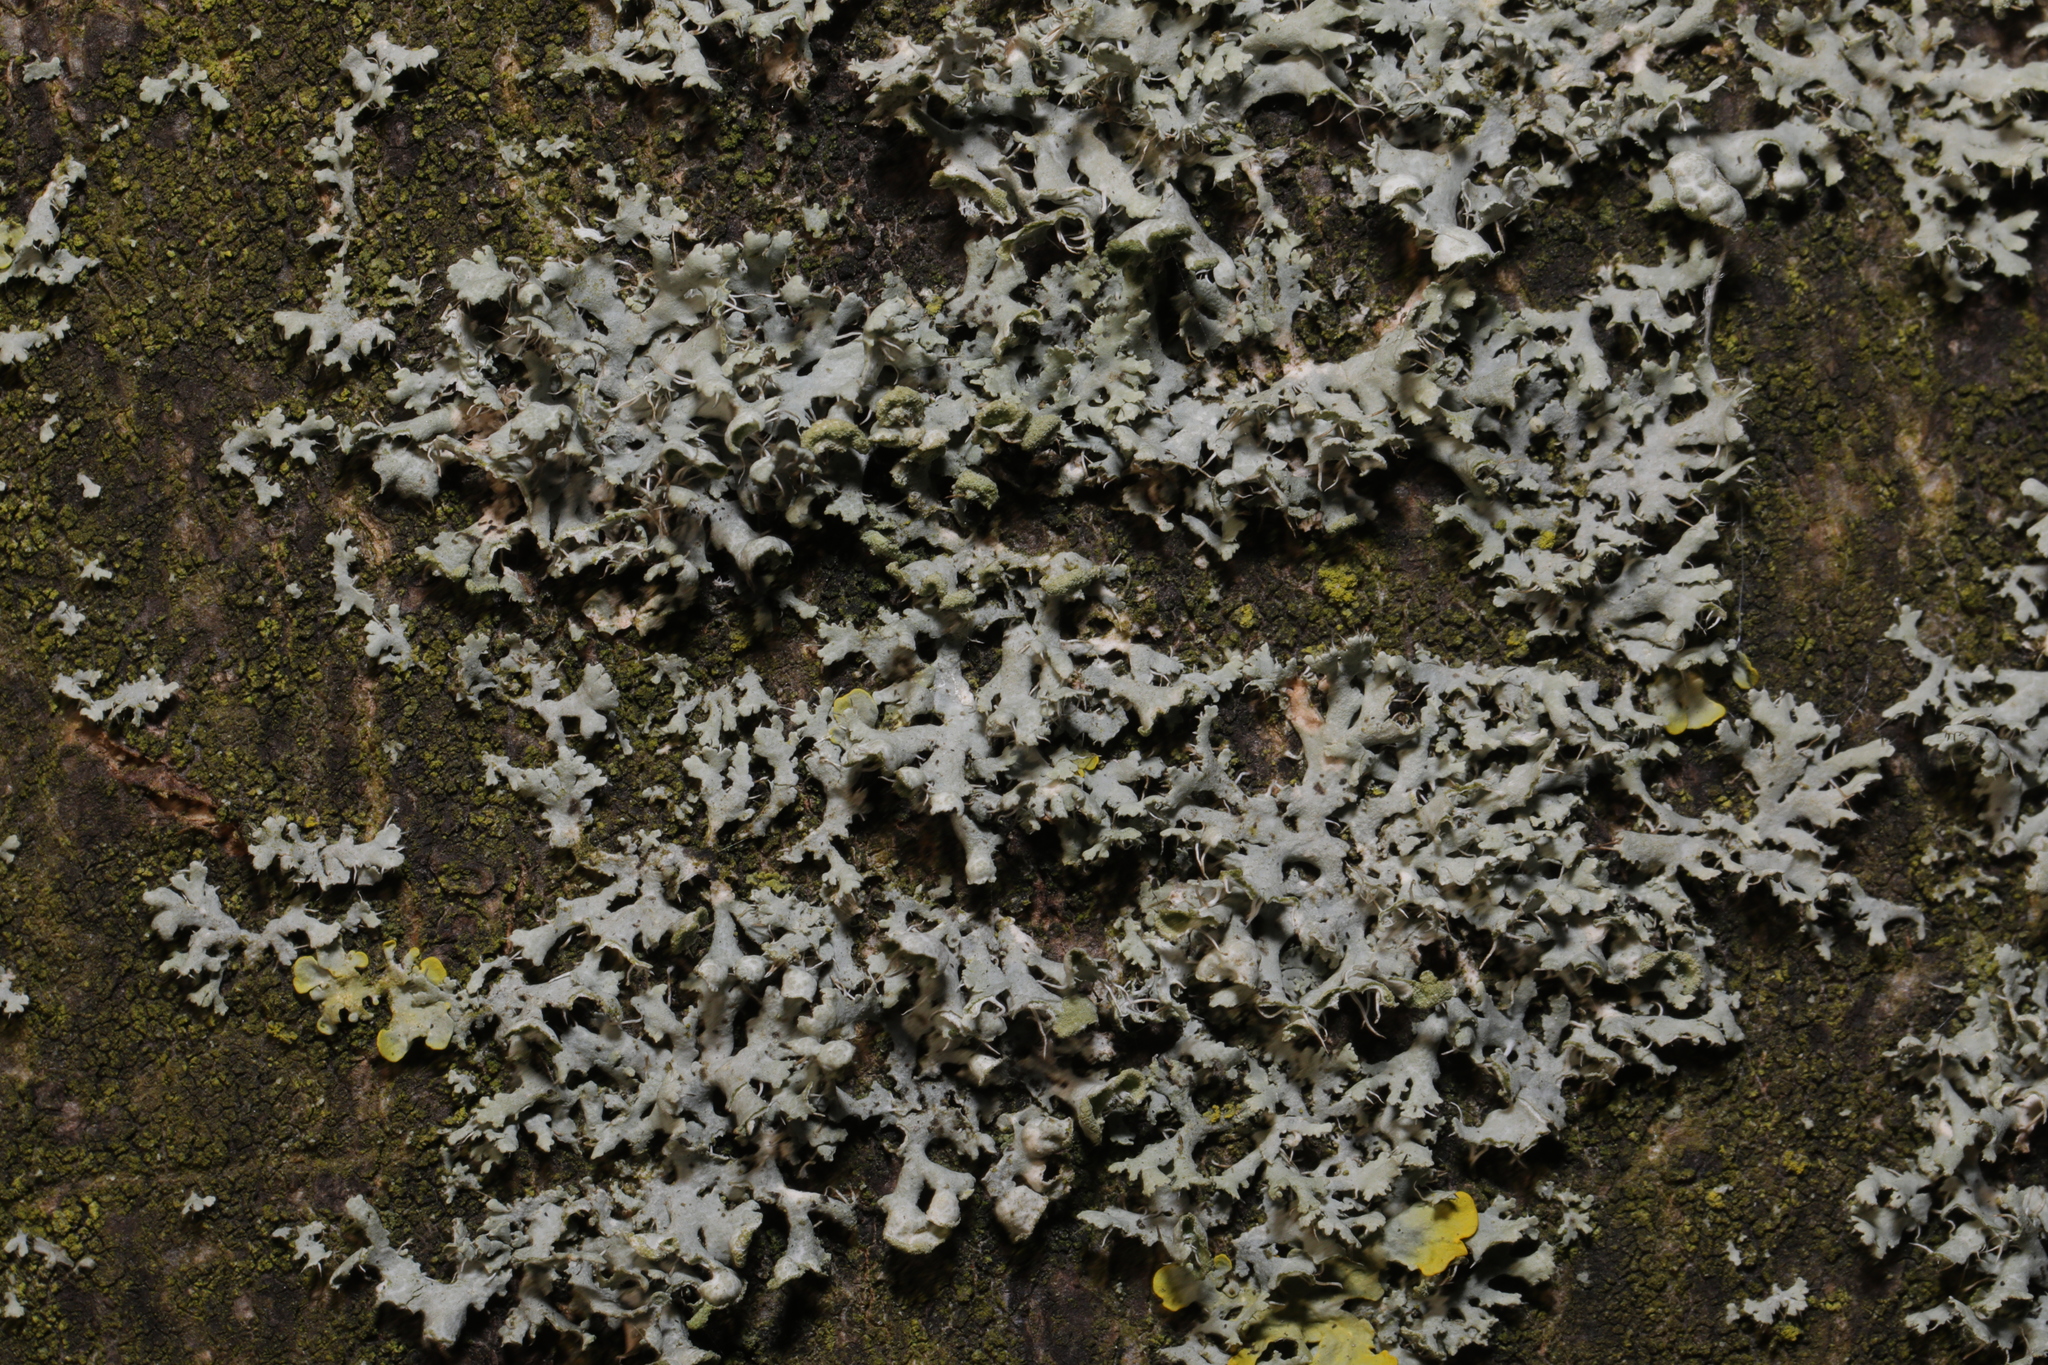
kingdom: Fungi
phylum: Ascomycota
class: Lecanoromycetes
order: Caliciales
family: Physciaceae
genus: Physcia
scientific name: Physcia adscendens
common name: Hooded rosette lichen
